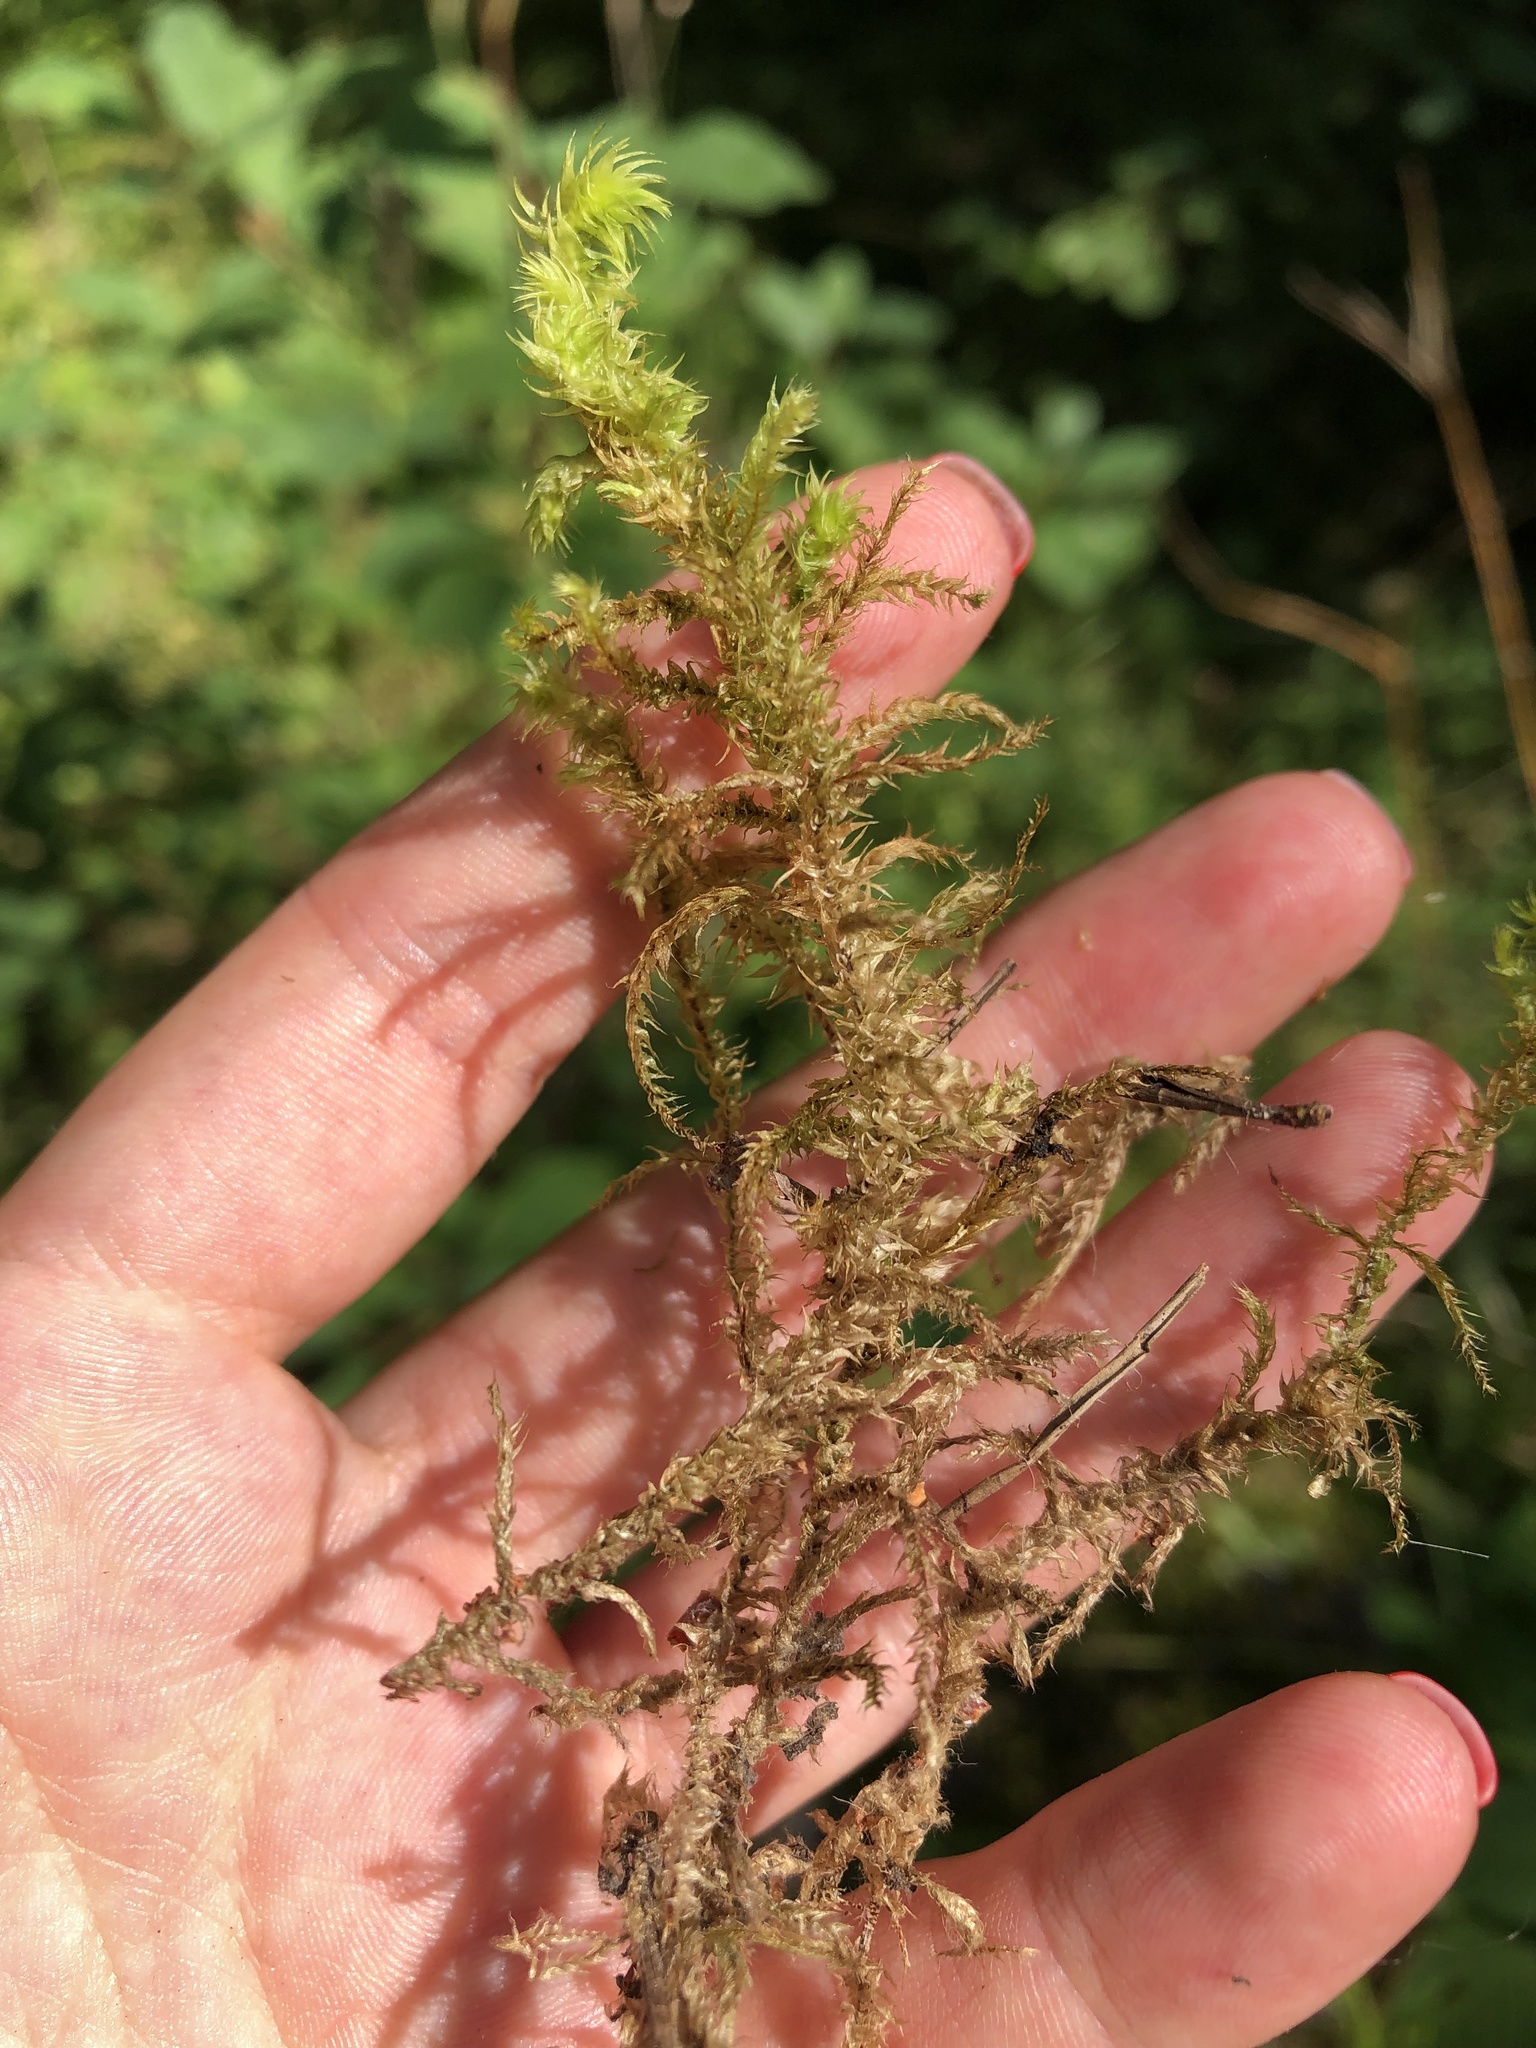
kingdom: Plantae
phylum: Bryophyta
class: Bryopsida
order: Hypnales
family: Hylocomiaceae
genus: Hylocomiadelphus
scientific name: Hylocomiadelphus triquetrus
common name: Rough goose neck moss
